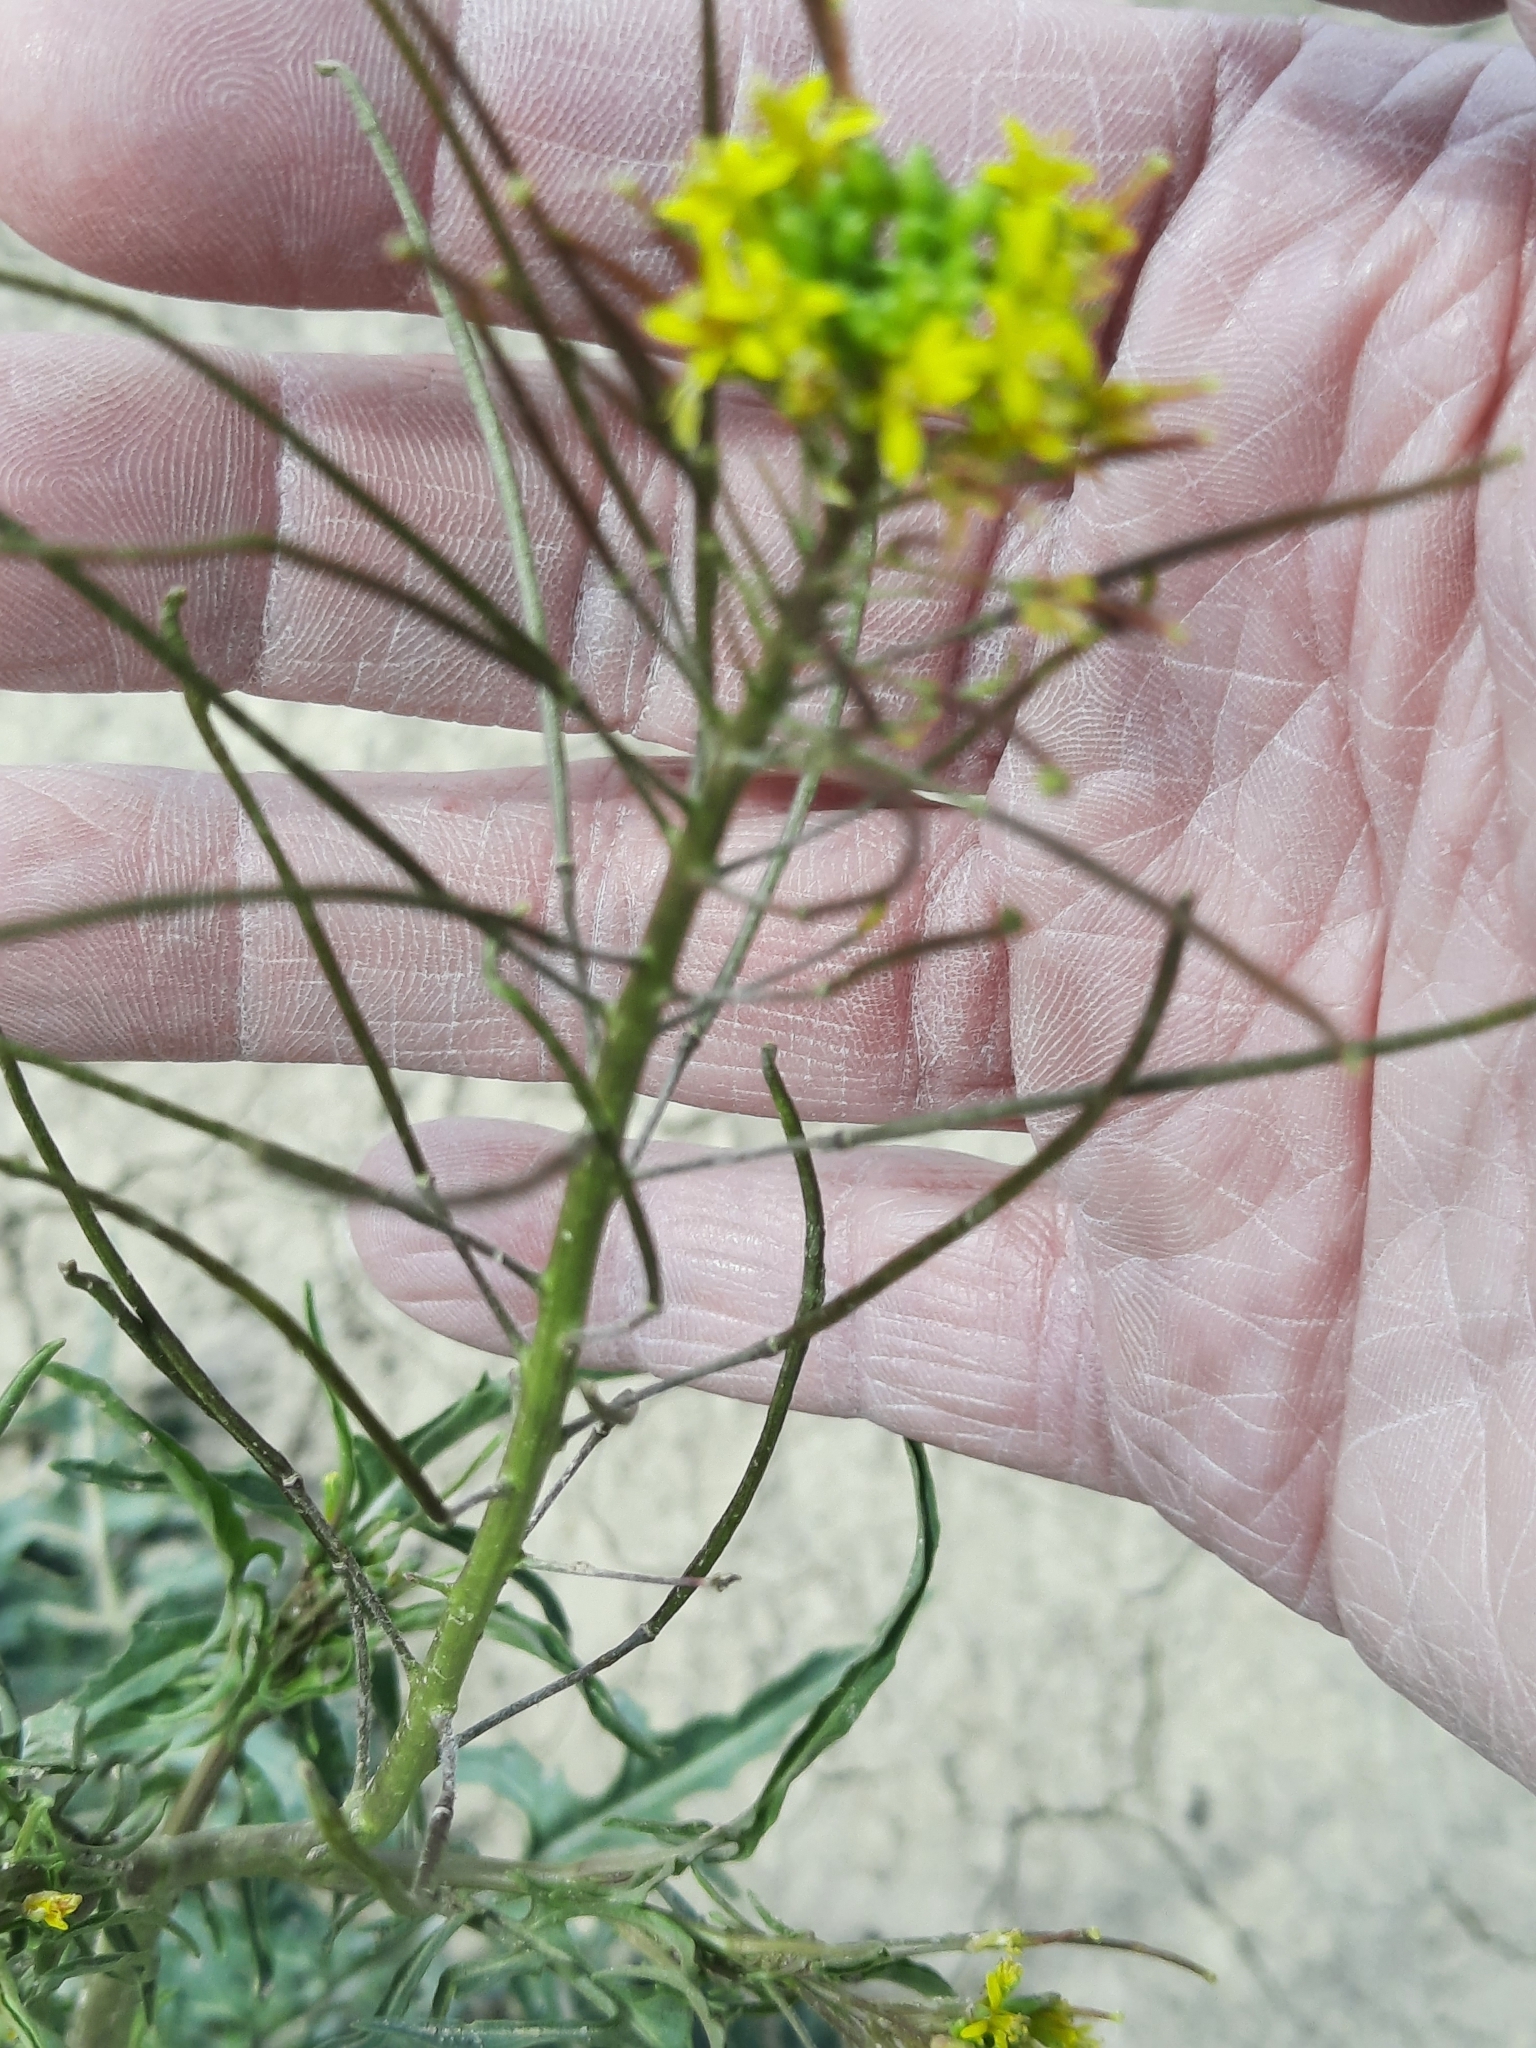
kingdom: Plantae
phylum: Tracheophyta
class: Magnoliopsida
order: Brassicales
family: Brassicaceae
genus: Sisymbrium
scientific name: Sisymbrium irio
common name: London rocket
